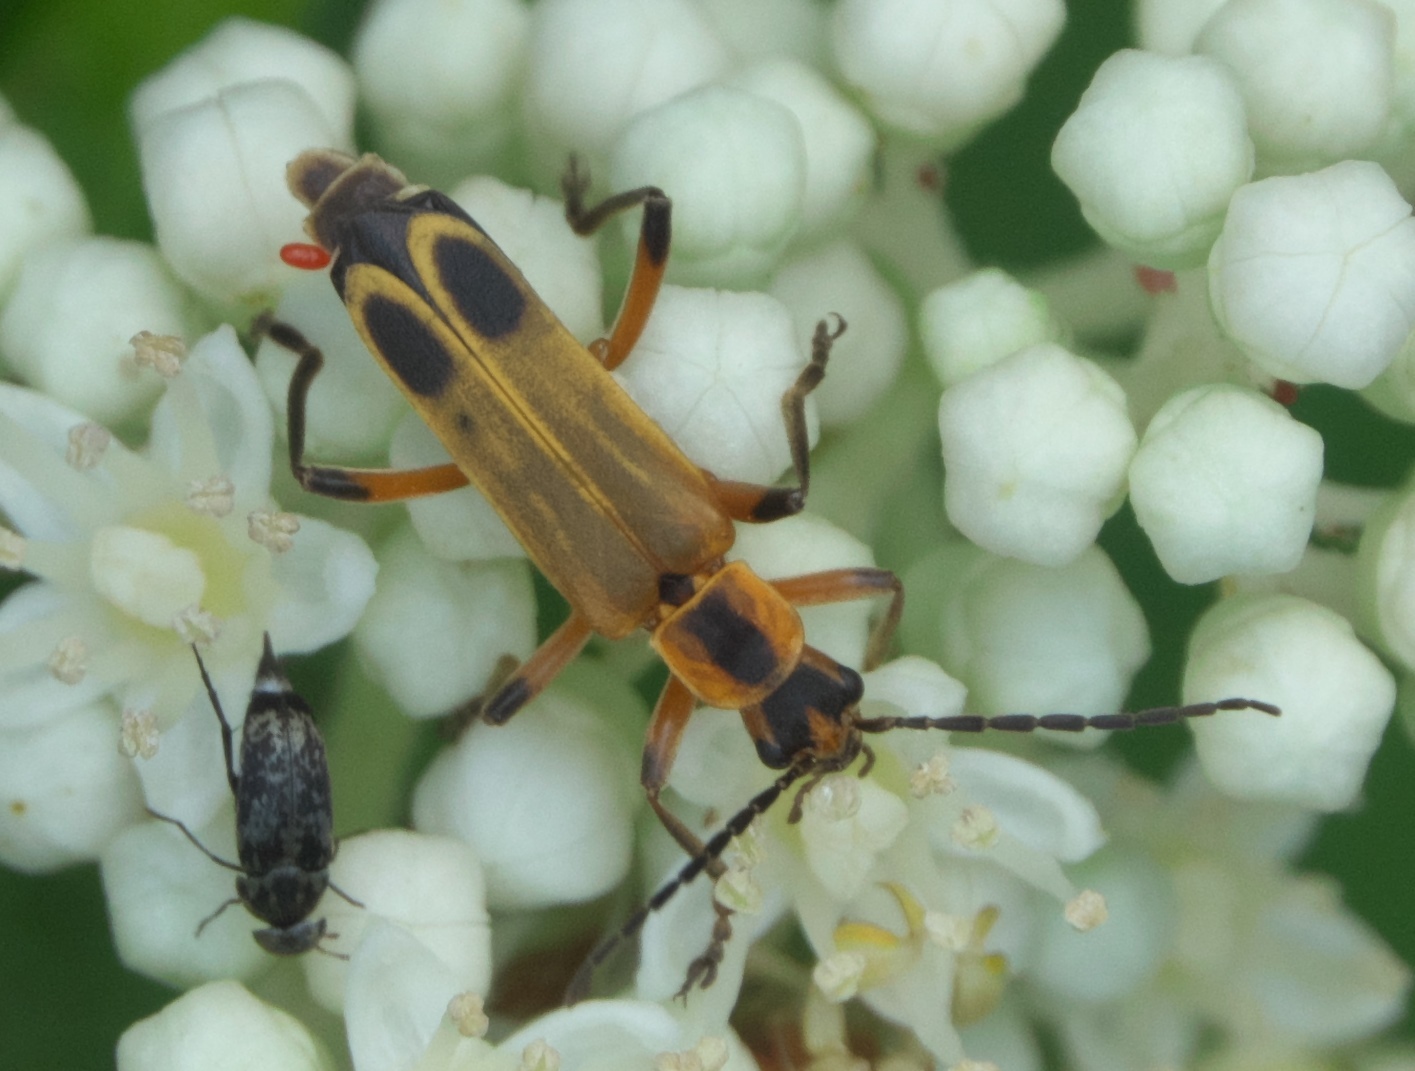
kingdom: Animalia
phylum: Arthropoda
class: Insecta
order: Coleoptera
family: Cantharidae
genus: Chauliognathus
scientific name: Chauliognathus marginatus
